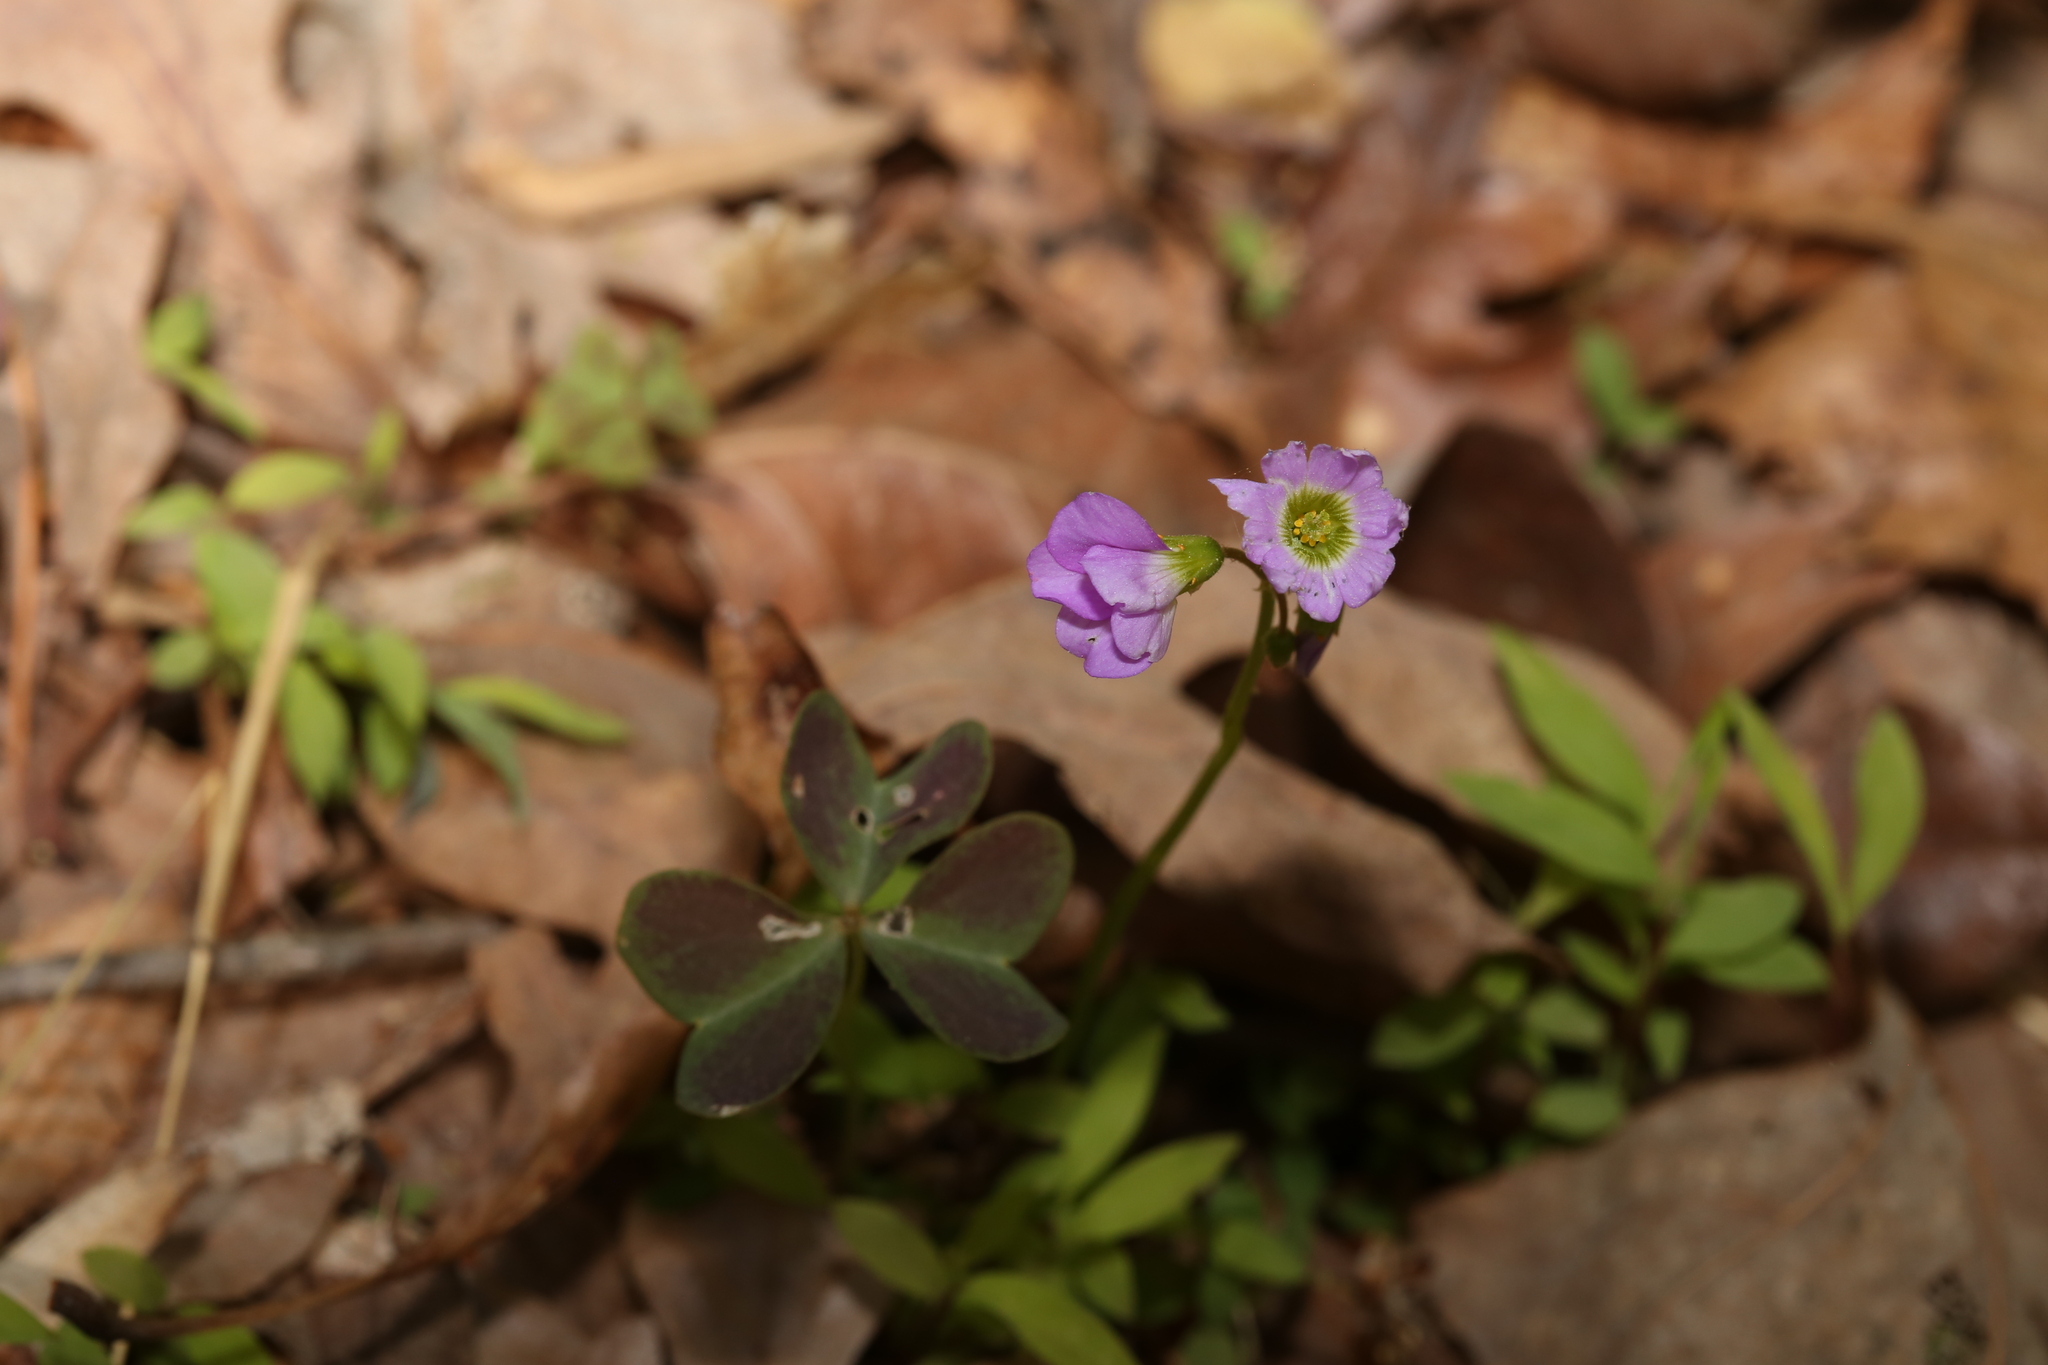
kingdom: Plantae
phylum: Tracheophyta
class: Magnoliopsida
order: Oxalidales
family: Oxalidaceae
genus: Oxalis
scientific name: Oxalis violacea
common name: Violet wood-sorrel
